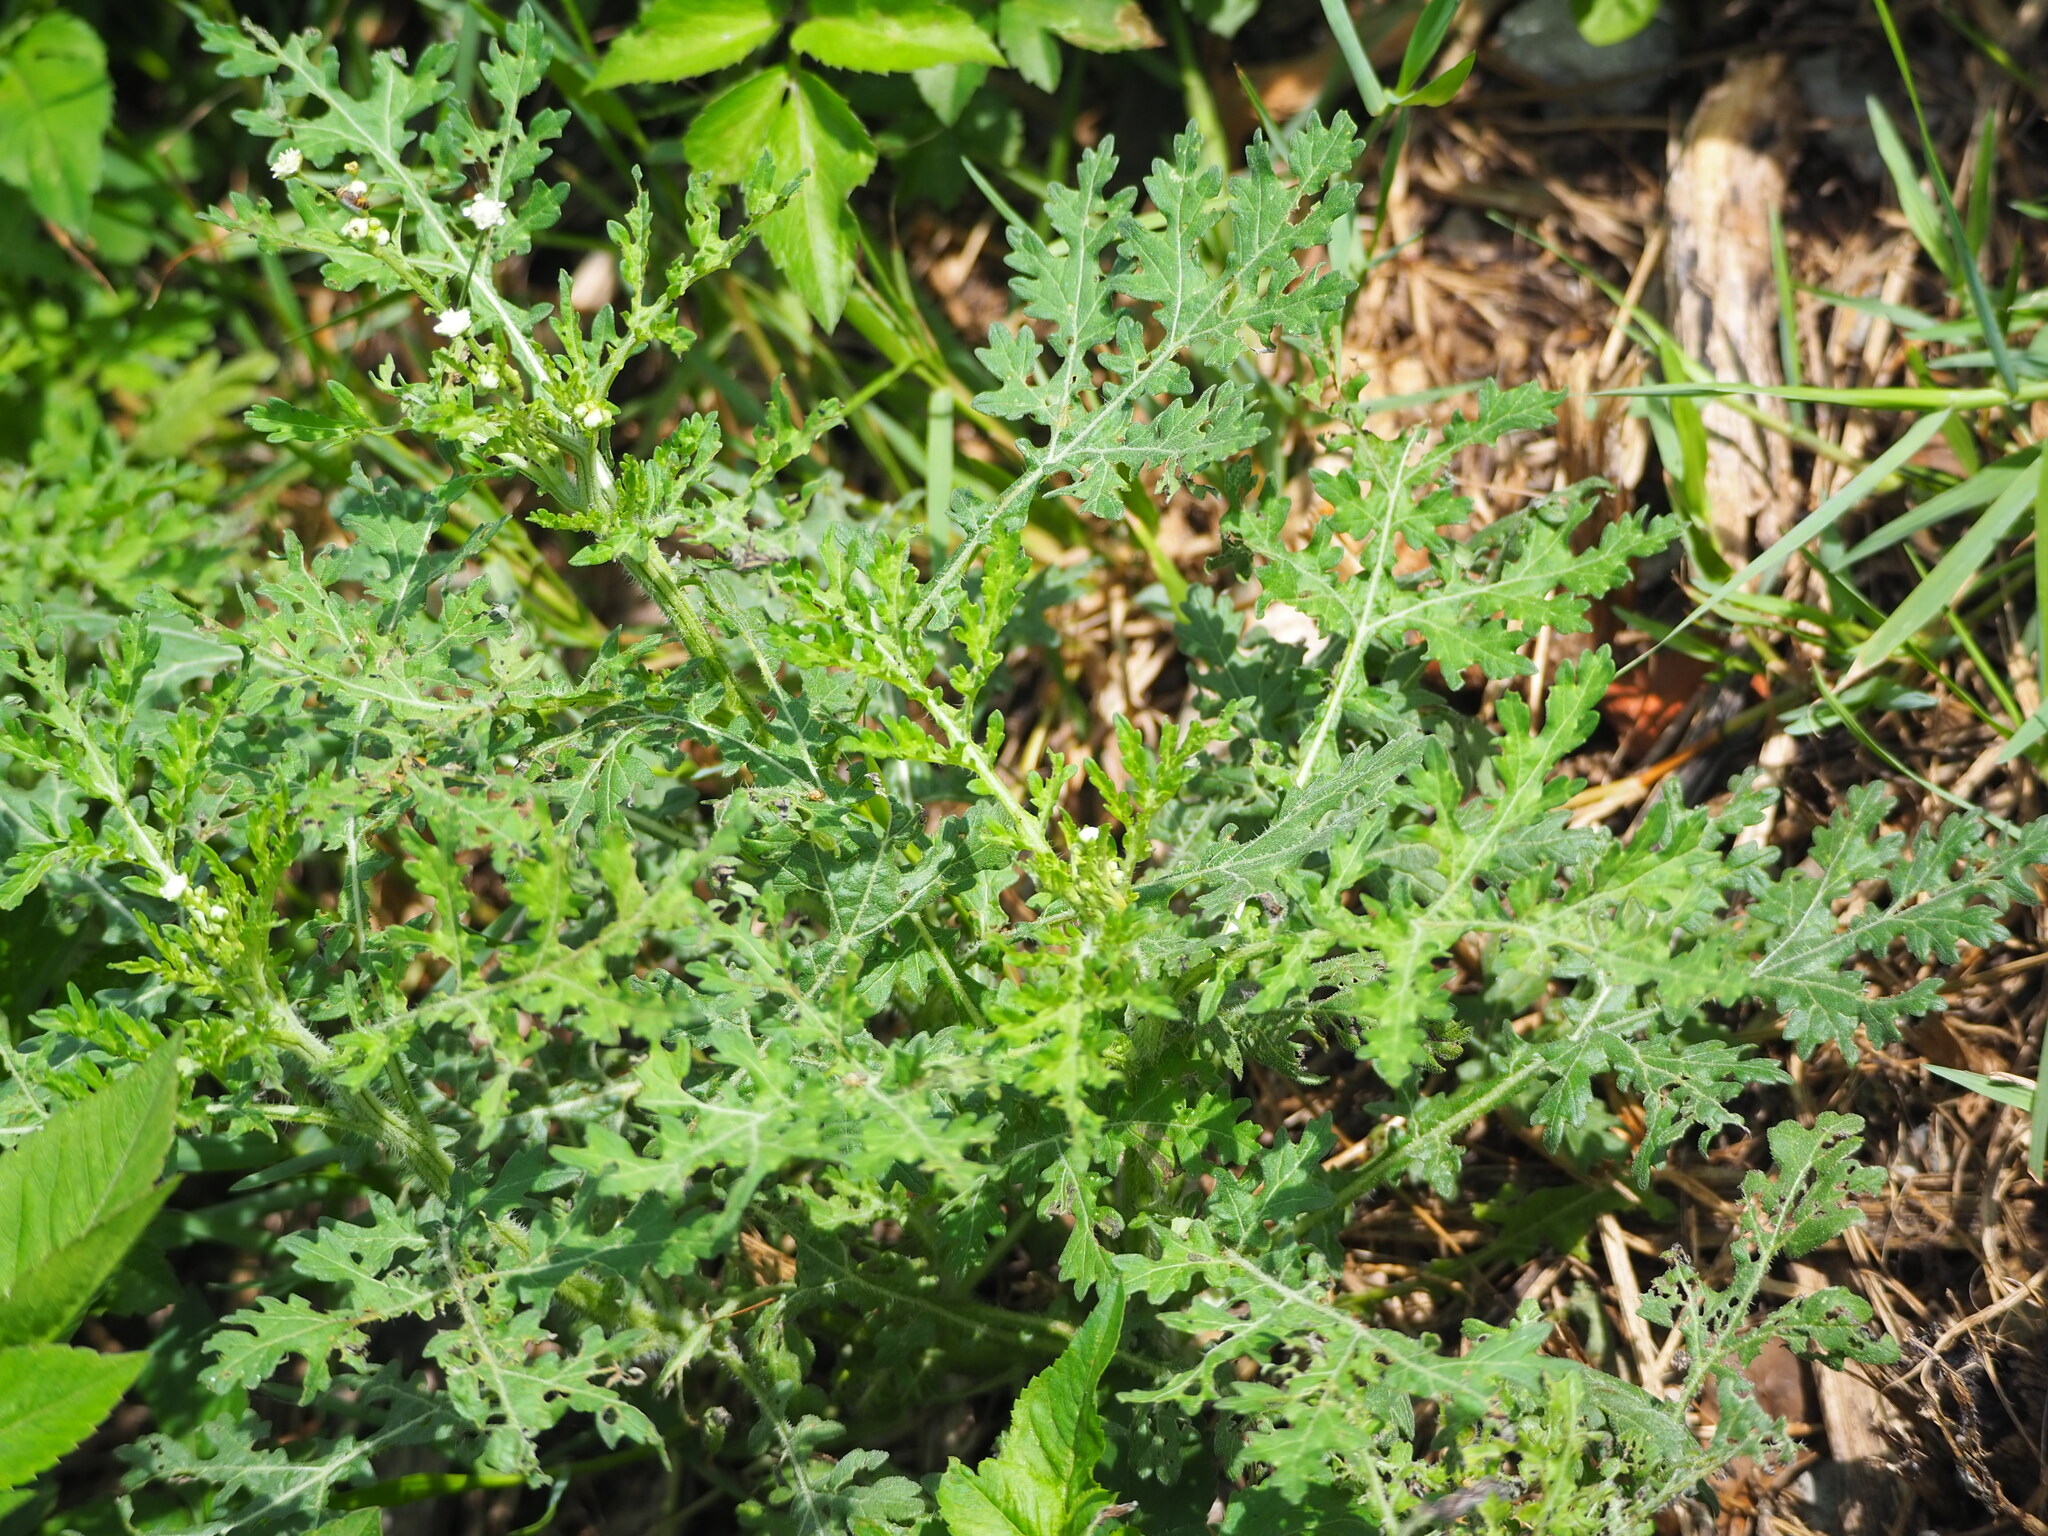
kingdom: Plantae
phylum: Tracheophyta
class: Magnoliopsida
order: Asterales
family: Asteraceae
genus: Parthenium
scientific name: Parthenium hysterophorus
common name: Santa maria feverfew
